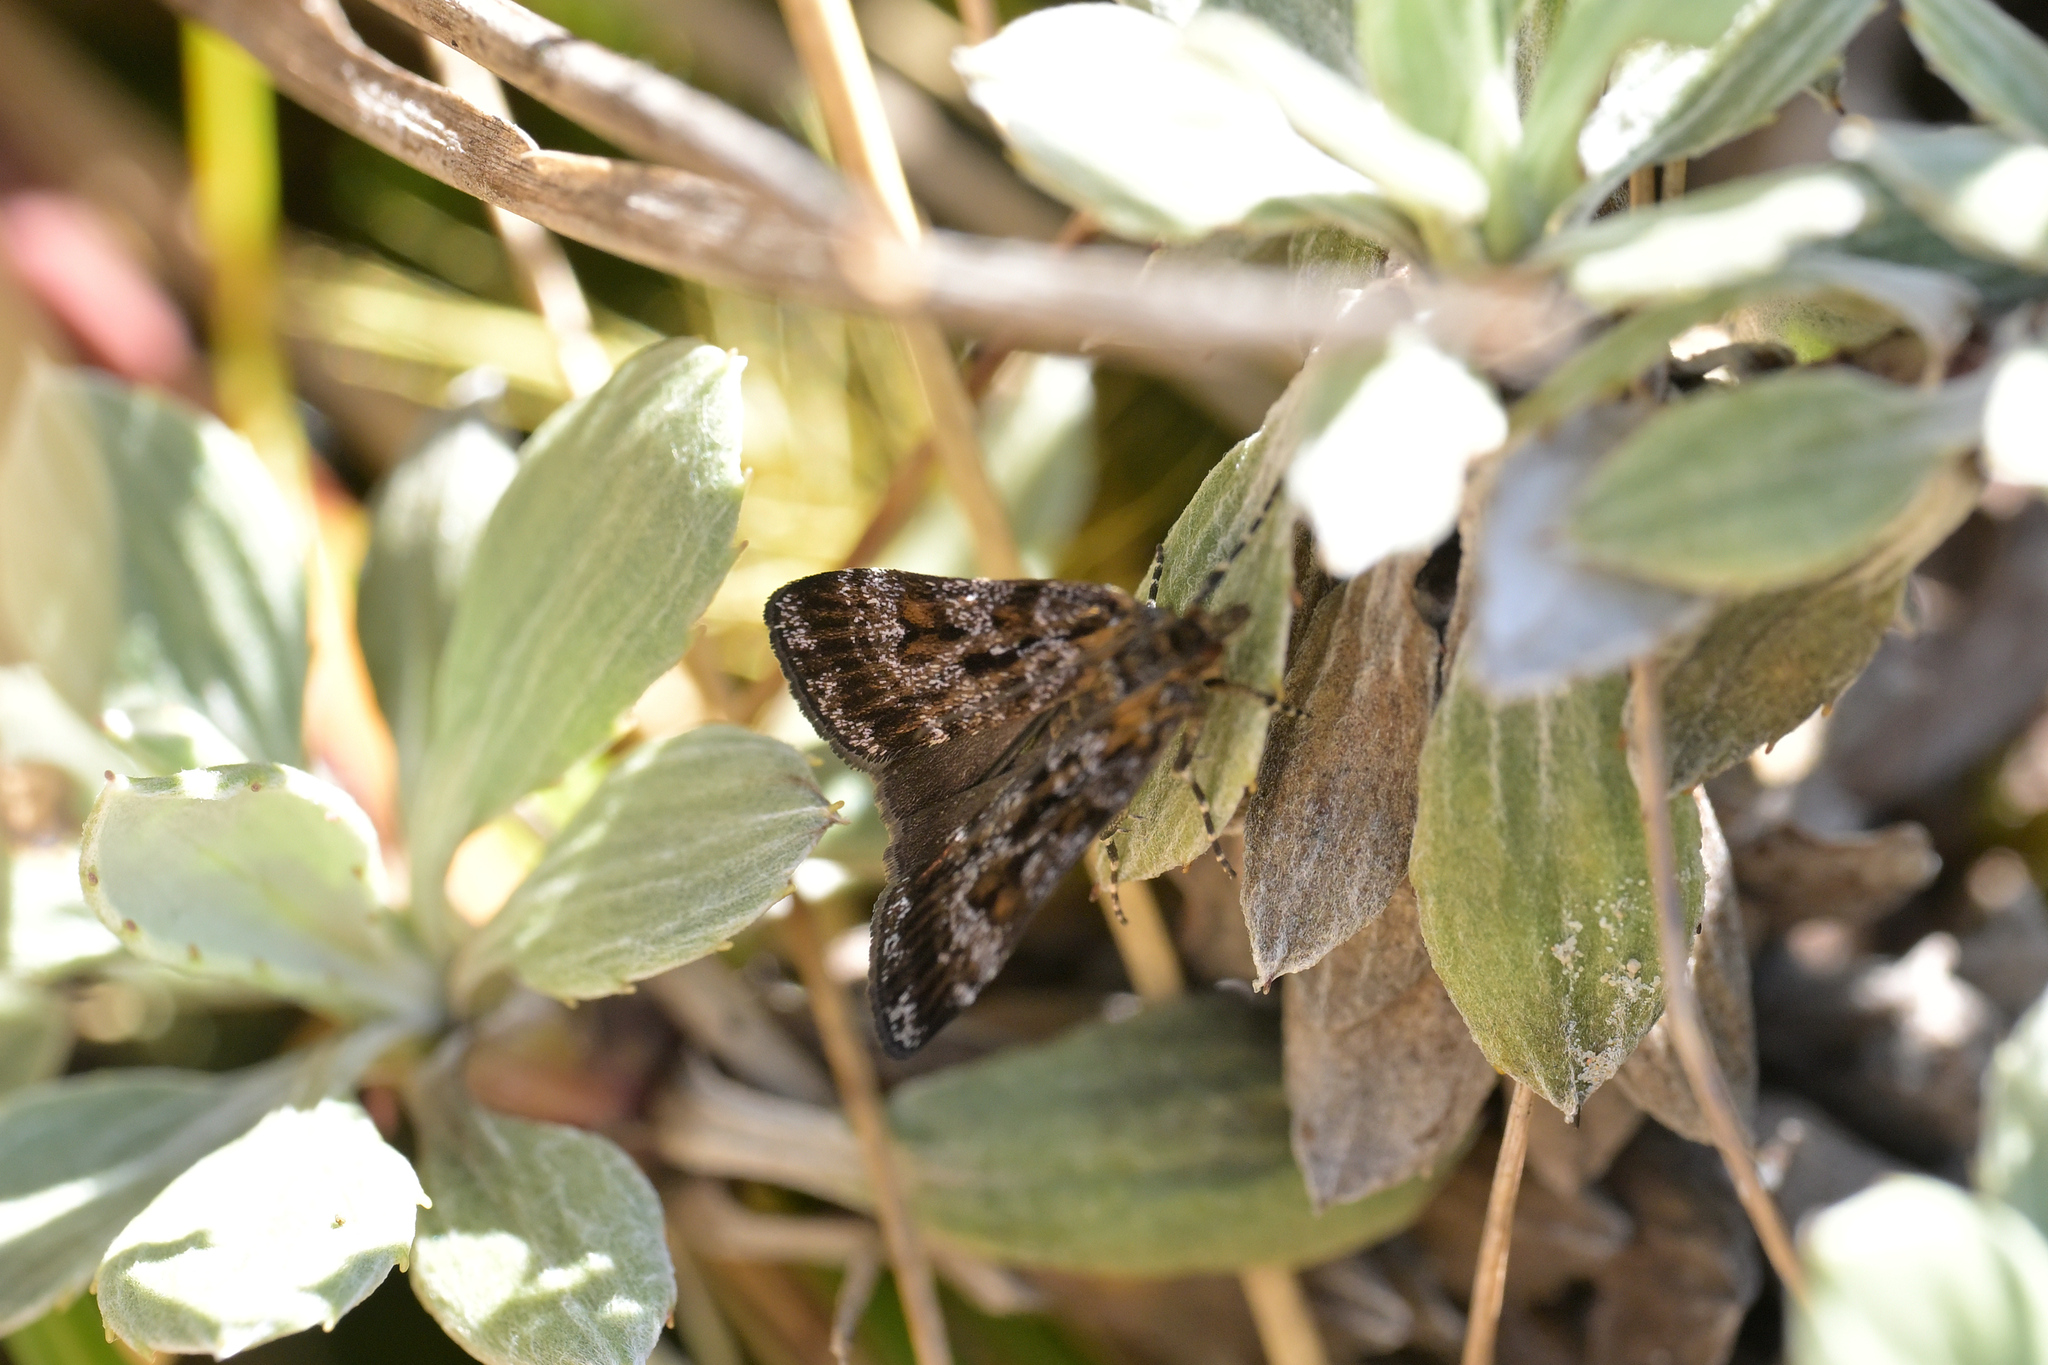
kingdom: Animalia
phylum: Arthropoda
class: Insecta
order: Lepidoptera
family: Crambidae
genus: Scoparia
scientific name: Scoparia encapna
